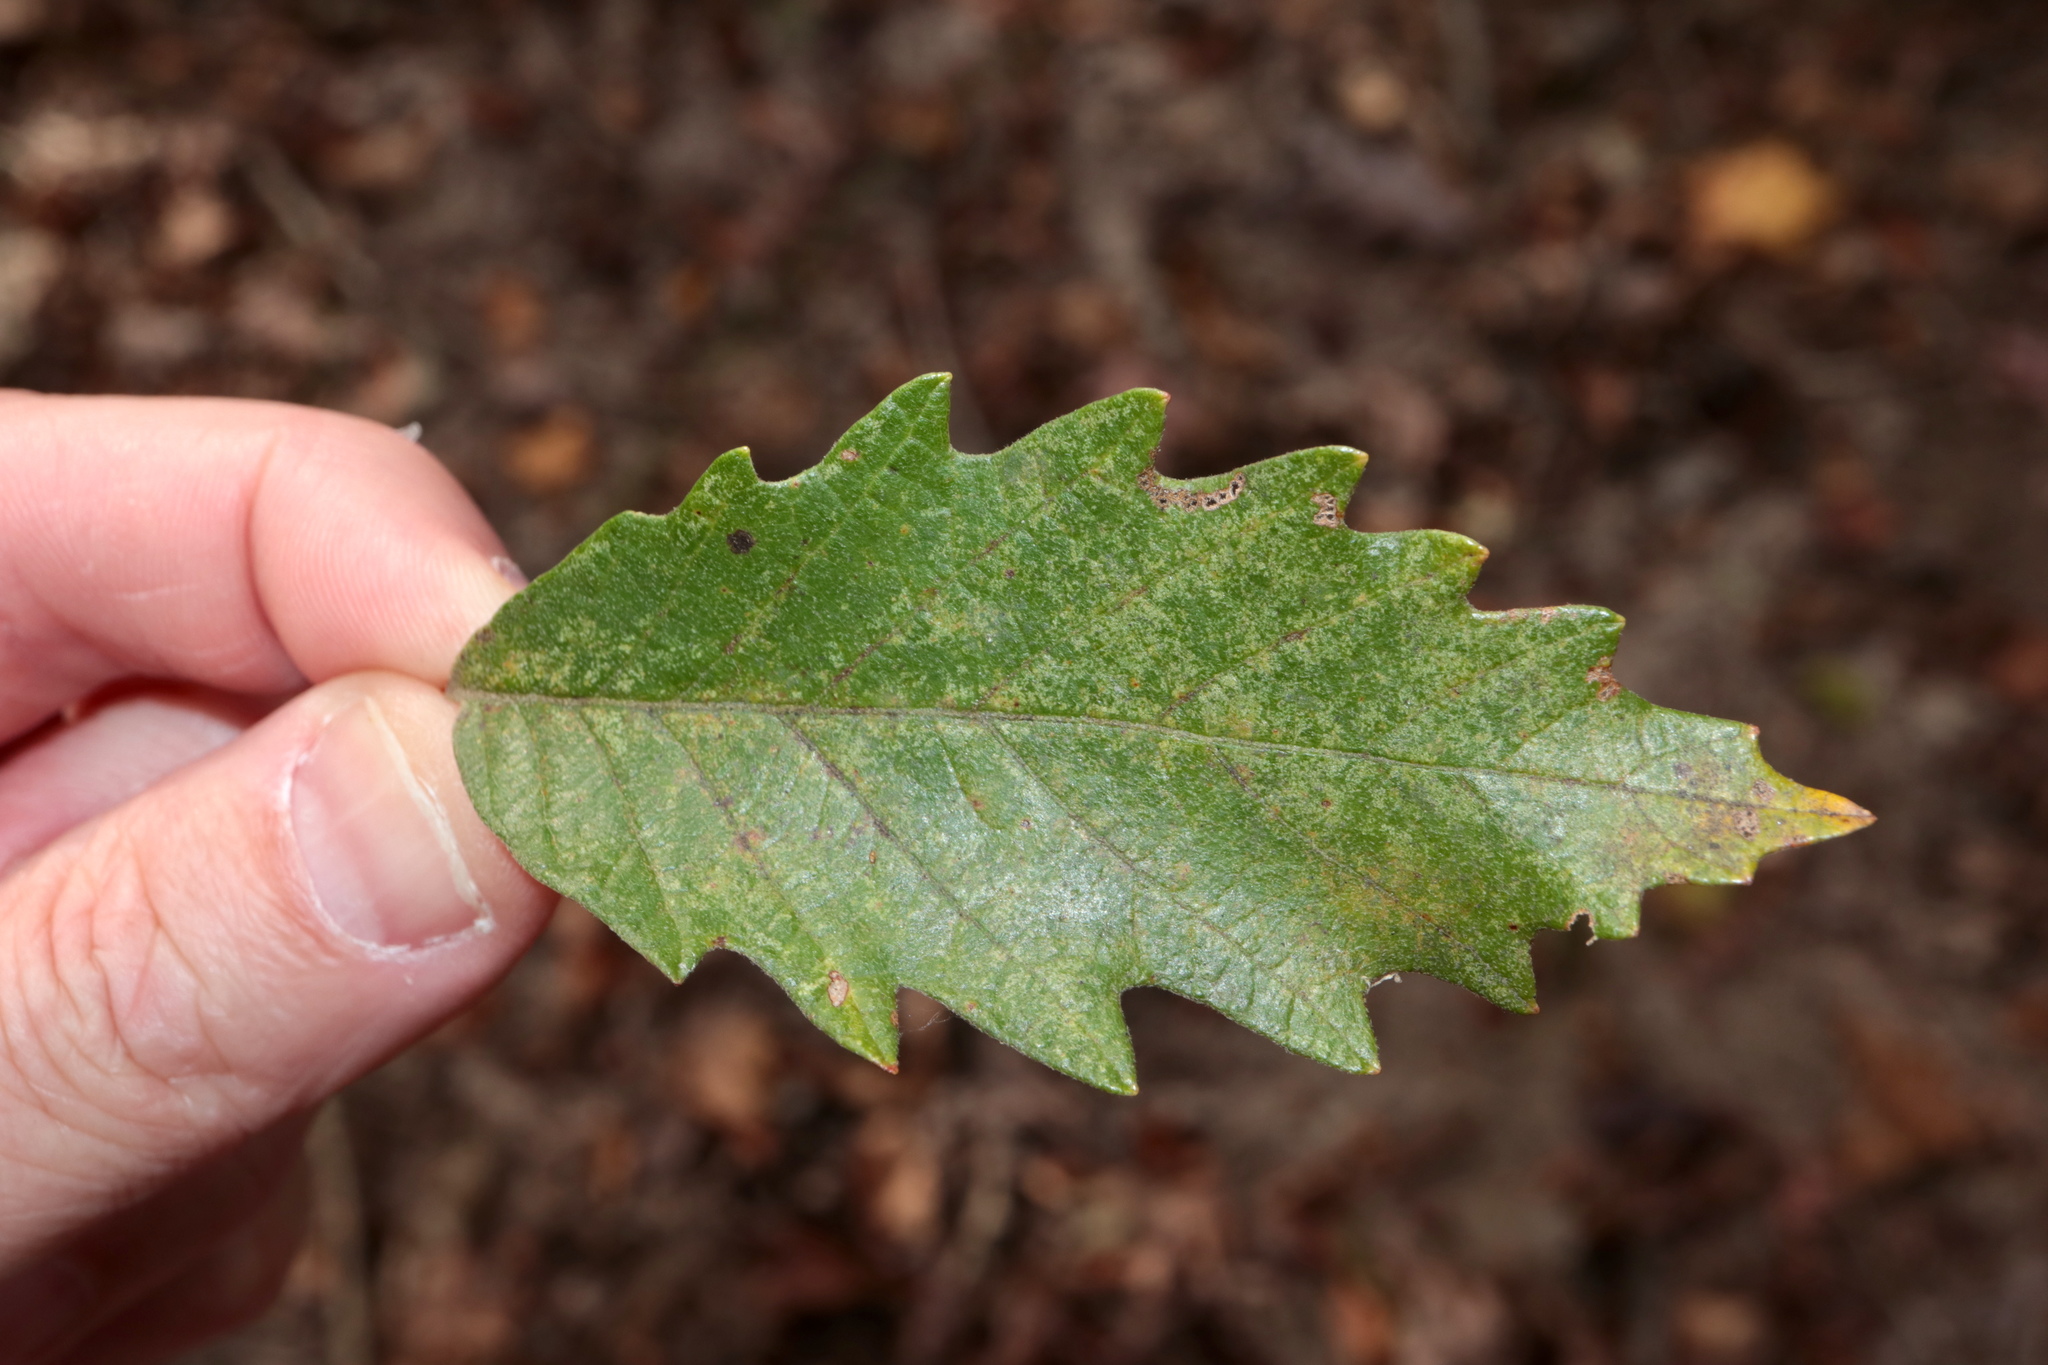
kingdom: Plantae
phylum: Tracheophyta
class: Magnoliopsida
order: Fagales
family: Fagaceae
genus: Quercus
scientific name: Quercus michauxii
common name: Swamp chestnut oak
